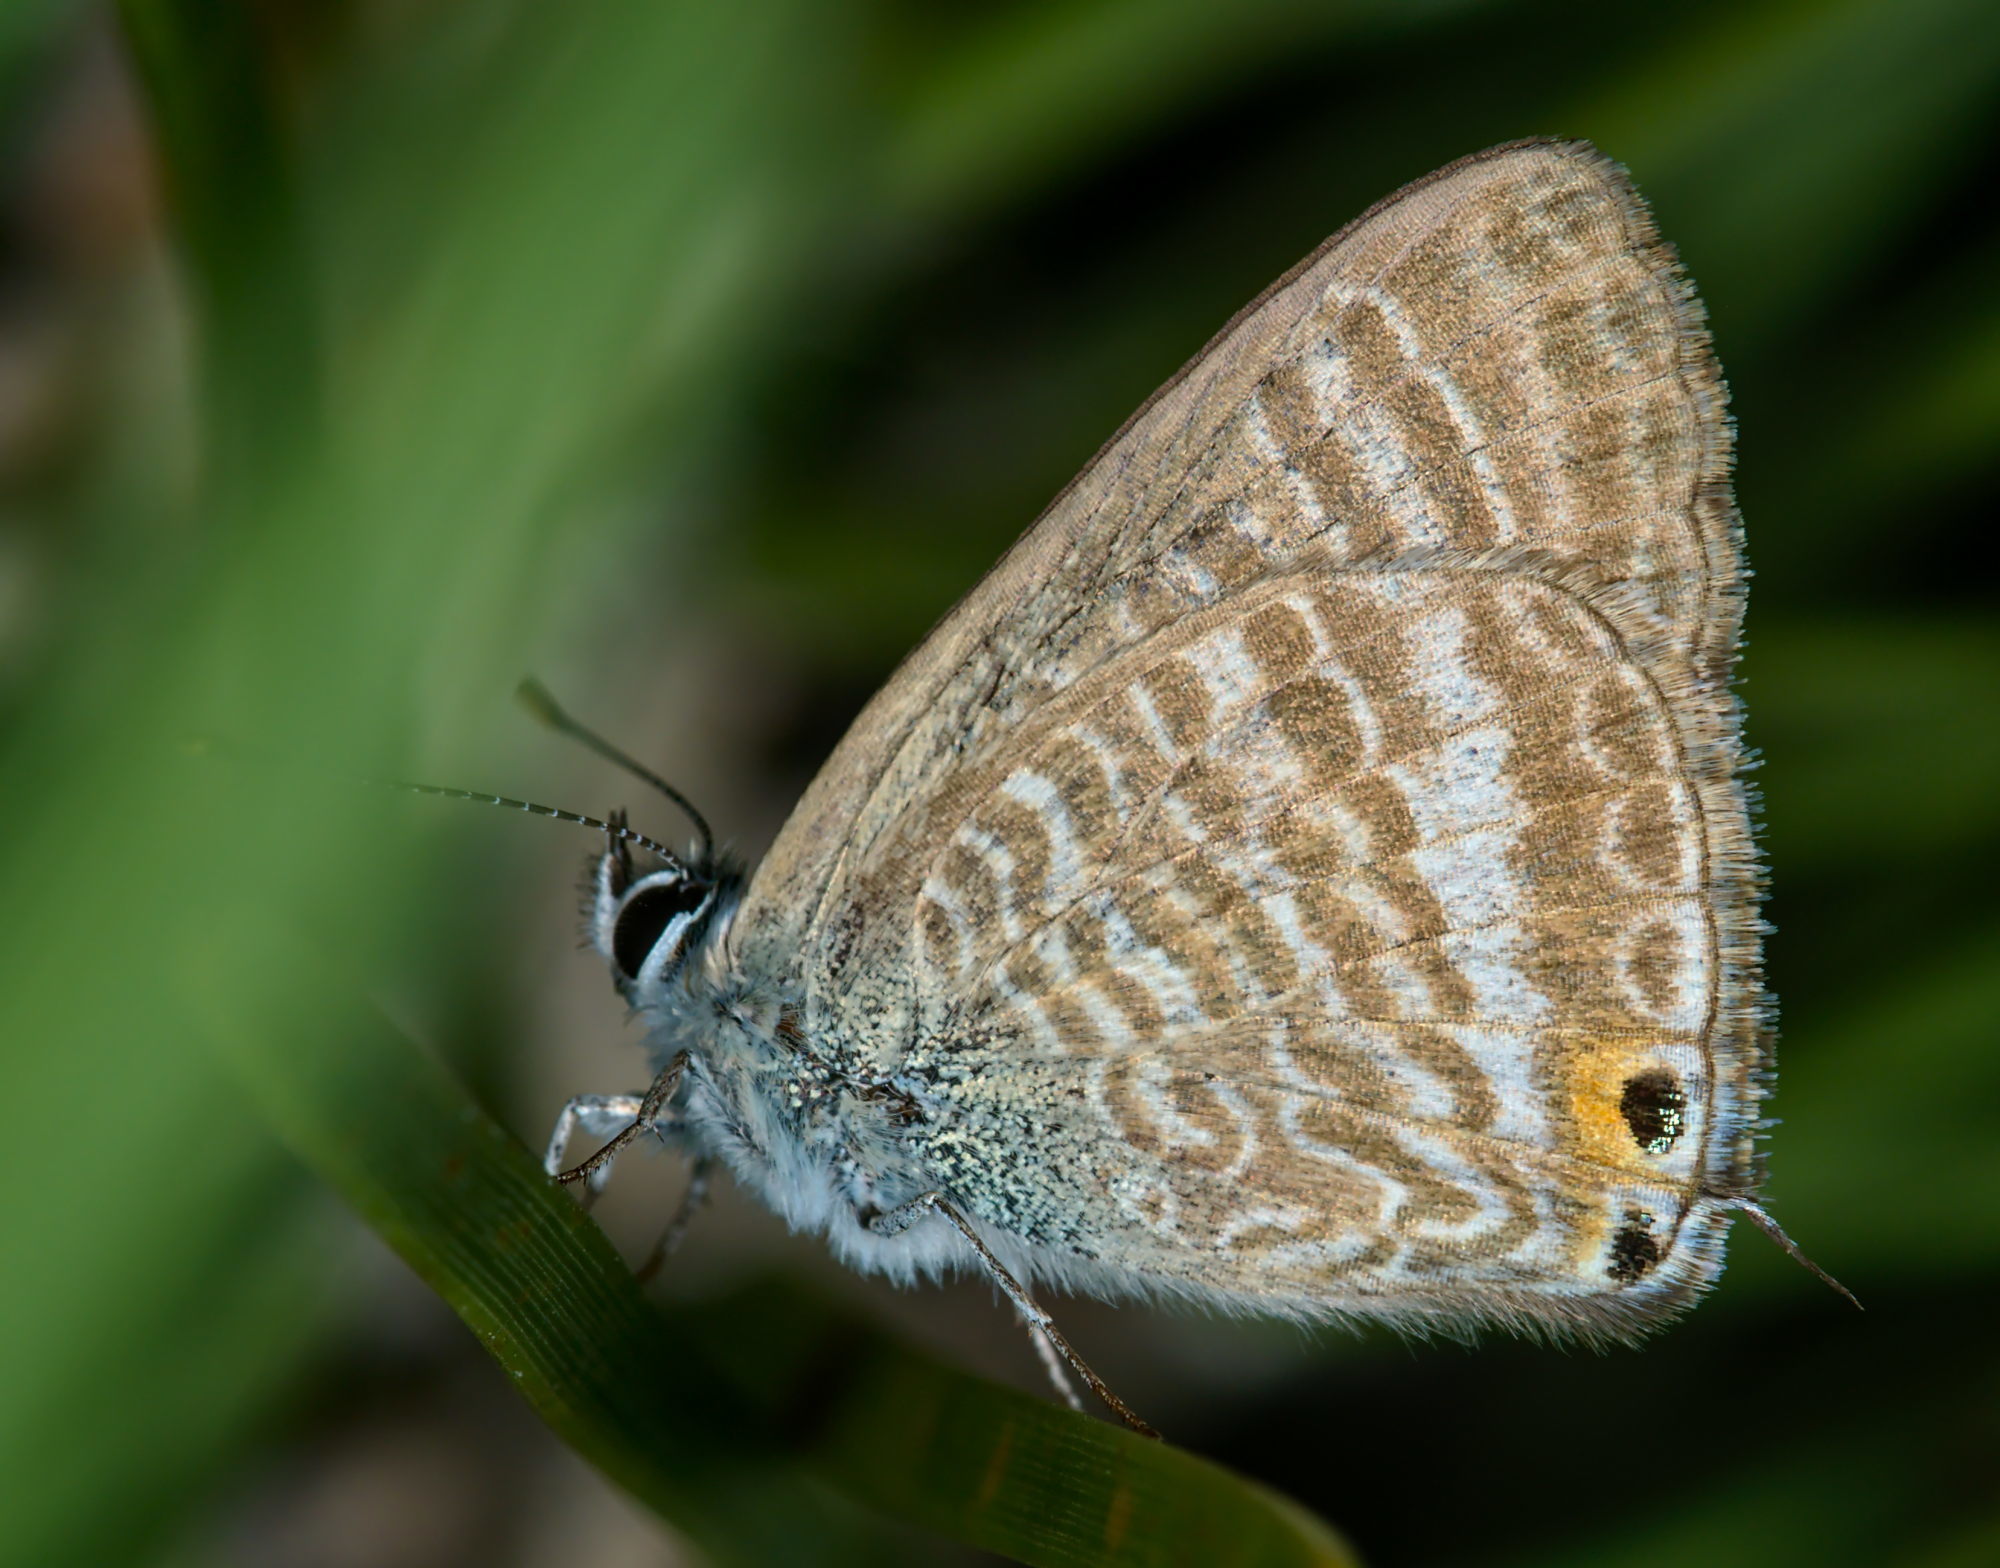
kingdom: Animalia
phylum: Arthropoda
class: Insecta
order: Lepidoptera
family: Lycaenidae
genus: Lampides
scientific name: Lampides boeticus
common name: Long-tailed blue
